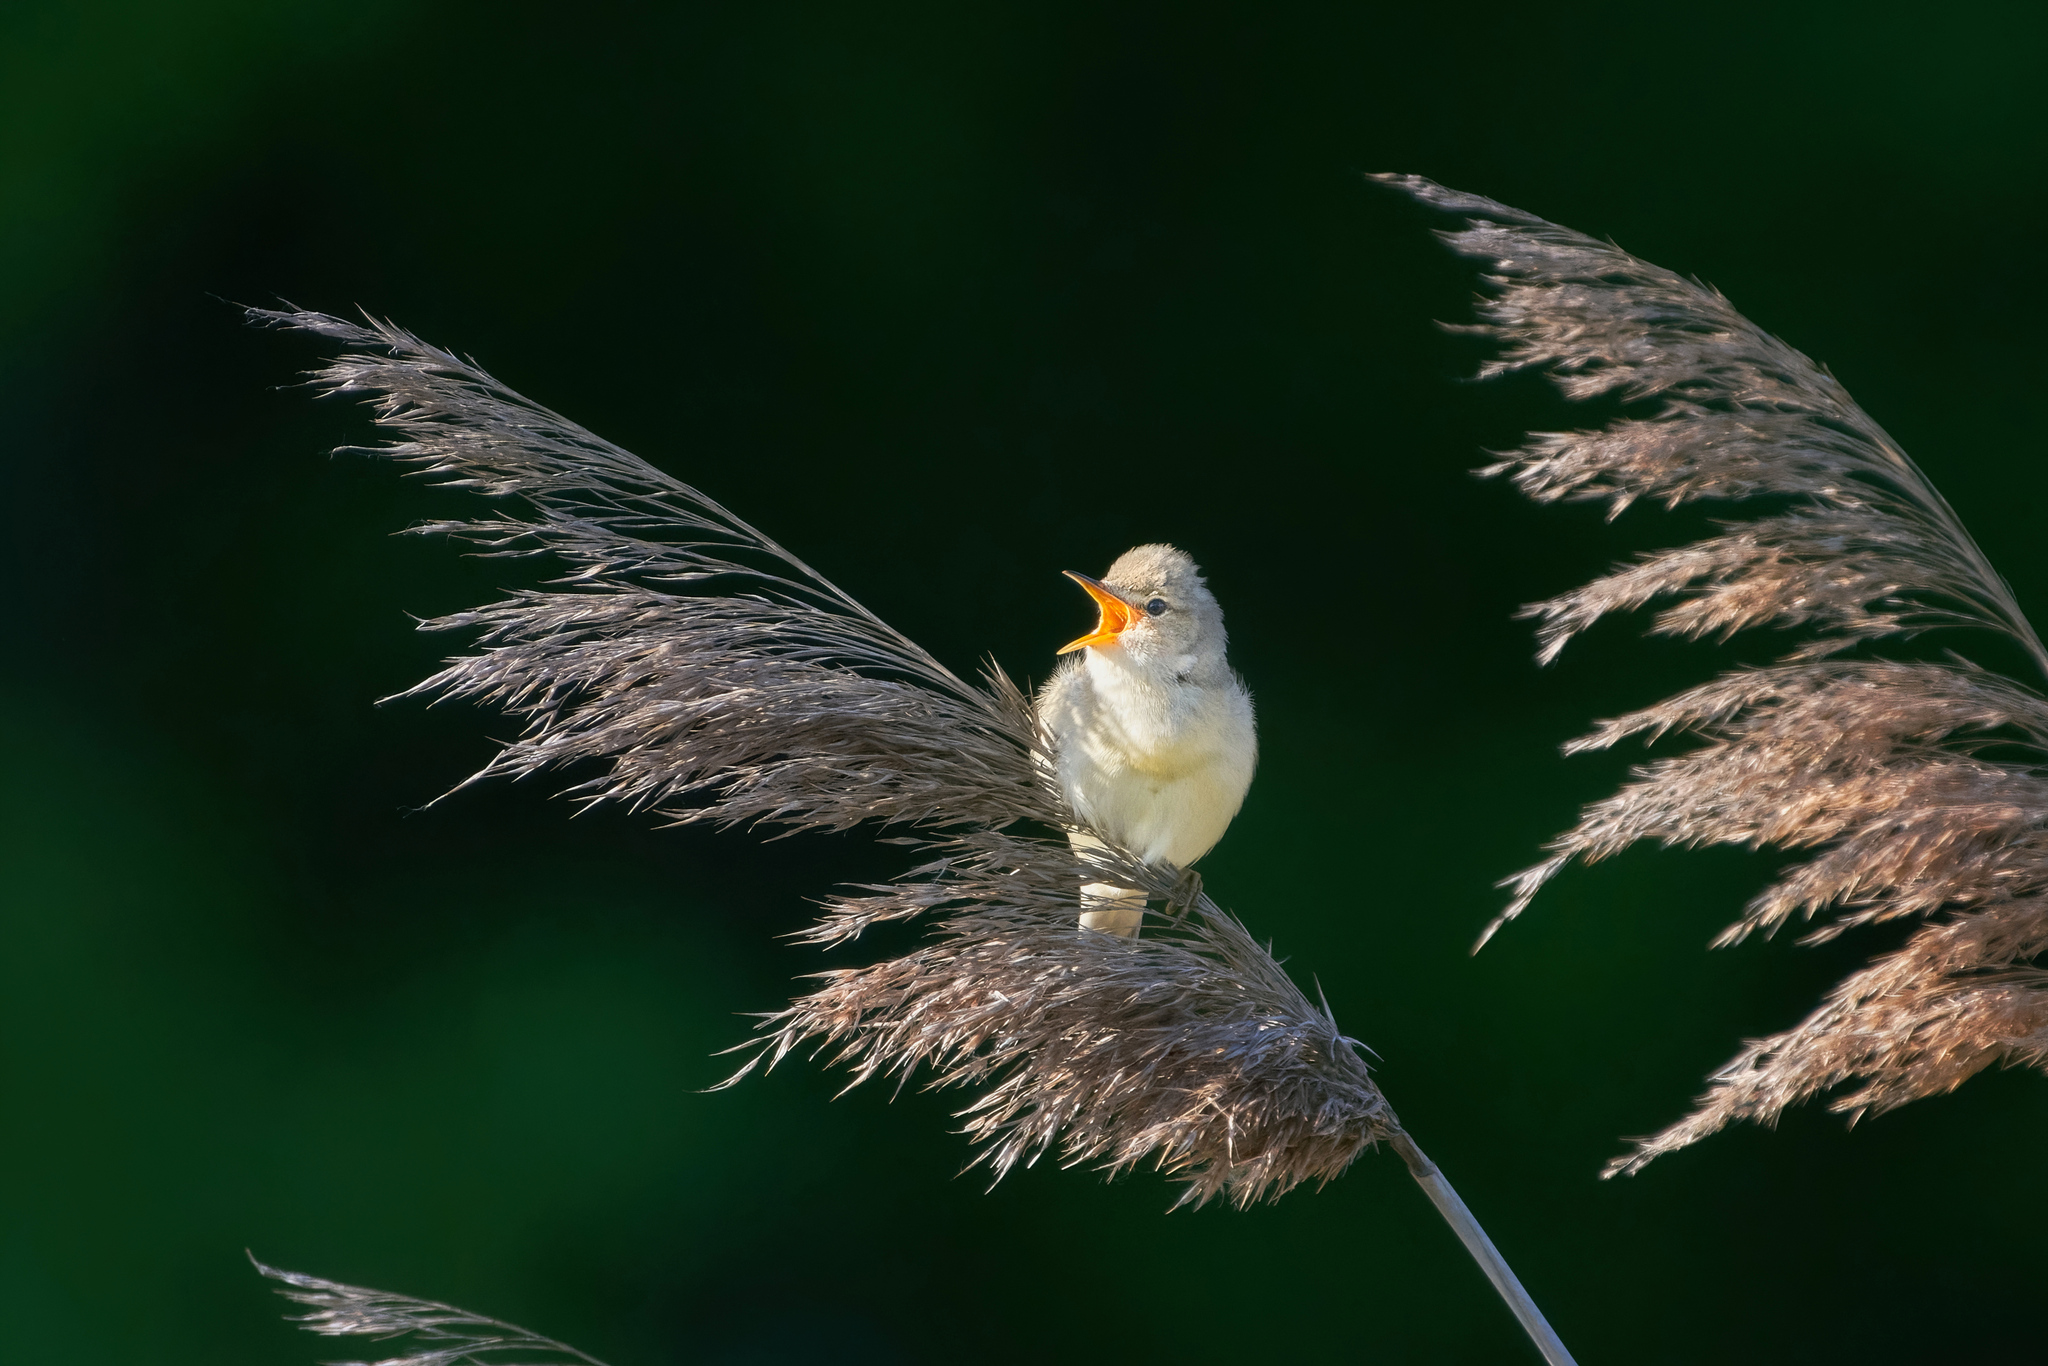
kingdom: Animalia
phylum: Chordata
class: Aves
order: Passeriformes
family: Acrocephalidae
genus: Acrocephalus
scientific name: Acrocephalus palustris
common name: Marsh warbler
